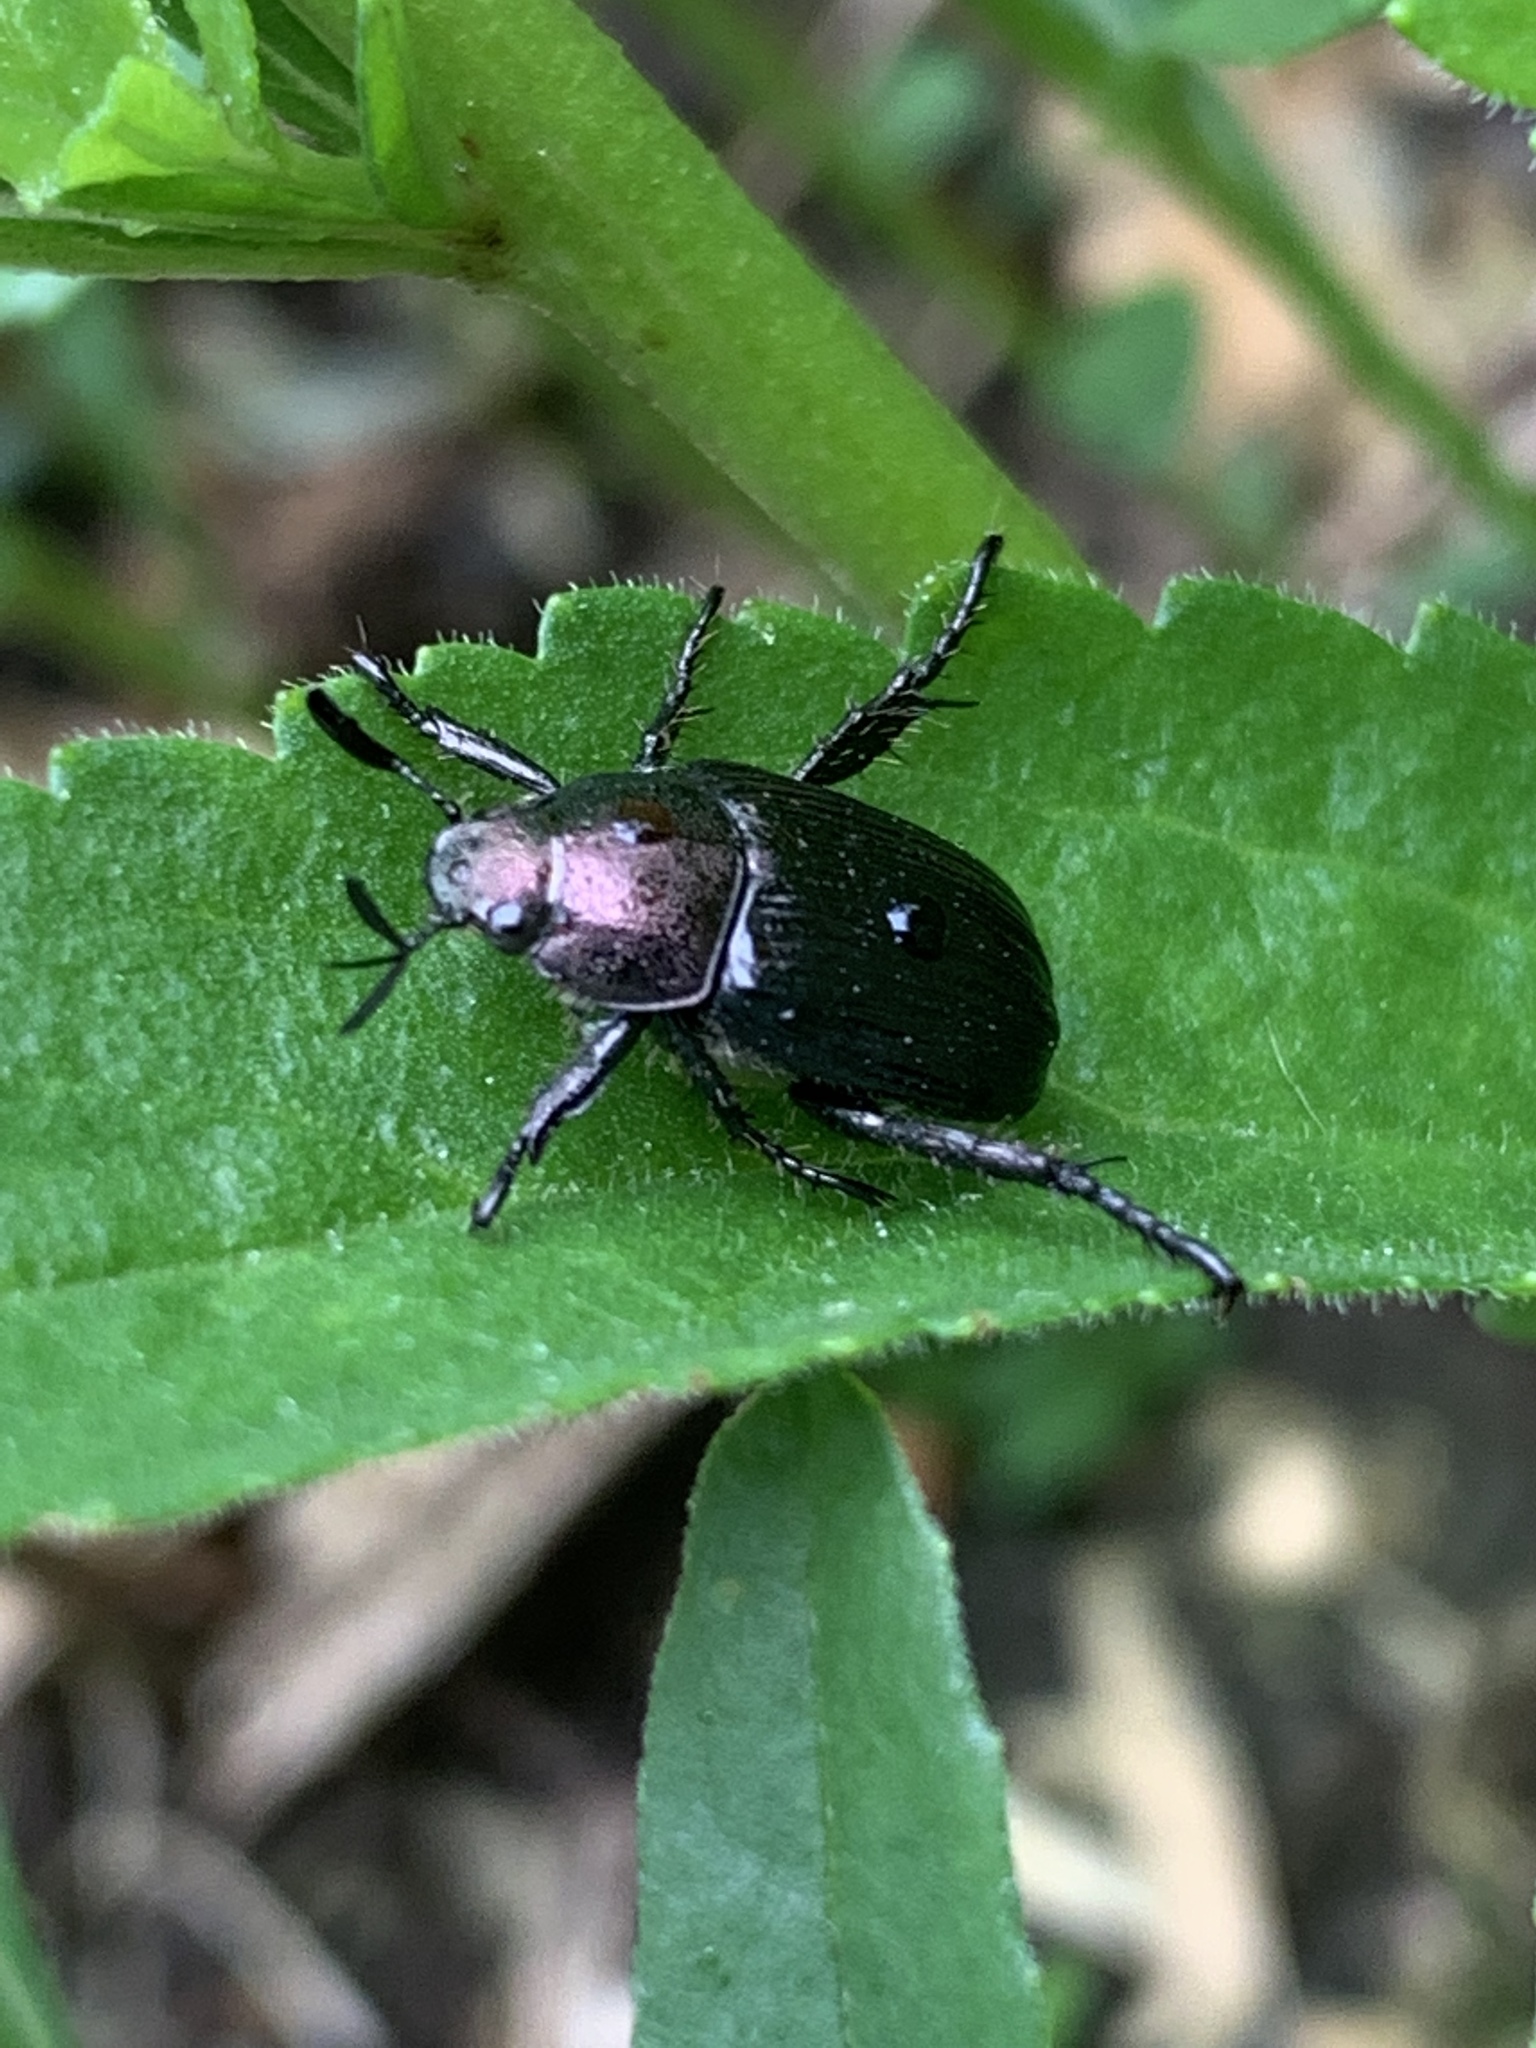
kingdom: Animalia
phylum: Arthropoda
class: Insecta
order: Coleoptera
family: Scarabaeidae
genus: Exomala
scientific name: Exomala orientalis
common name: Oriental beetle
